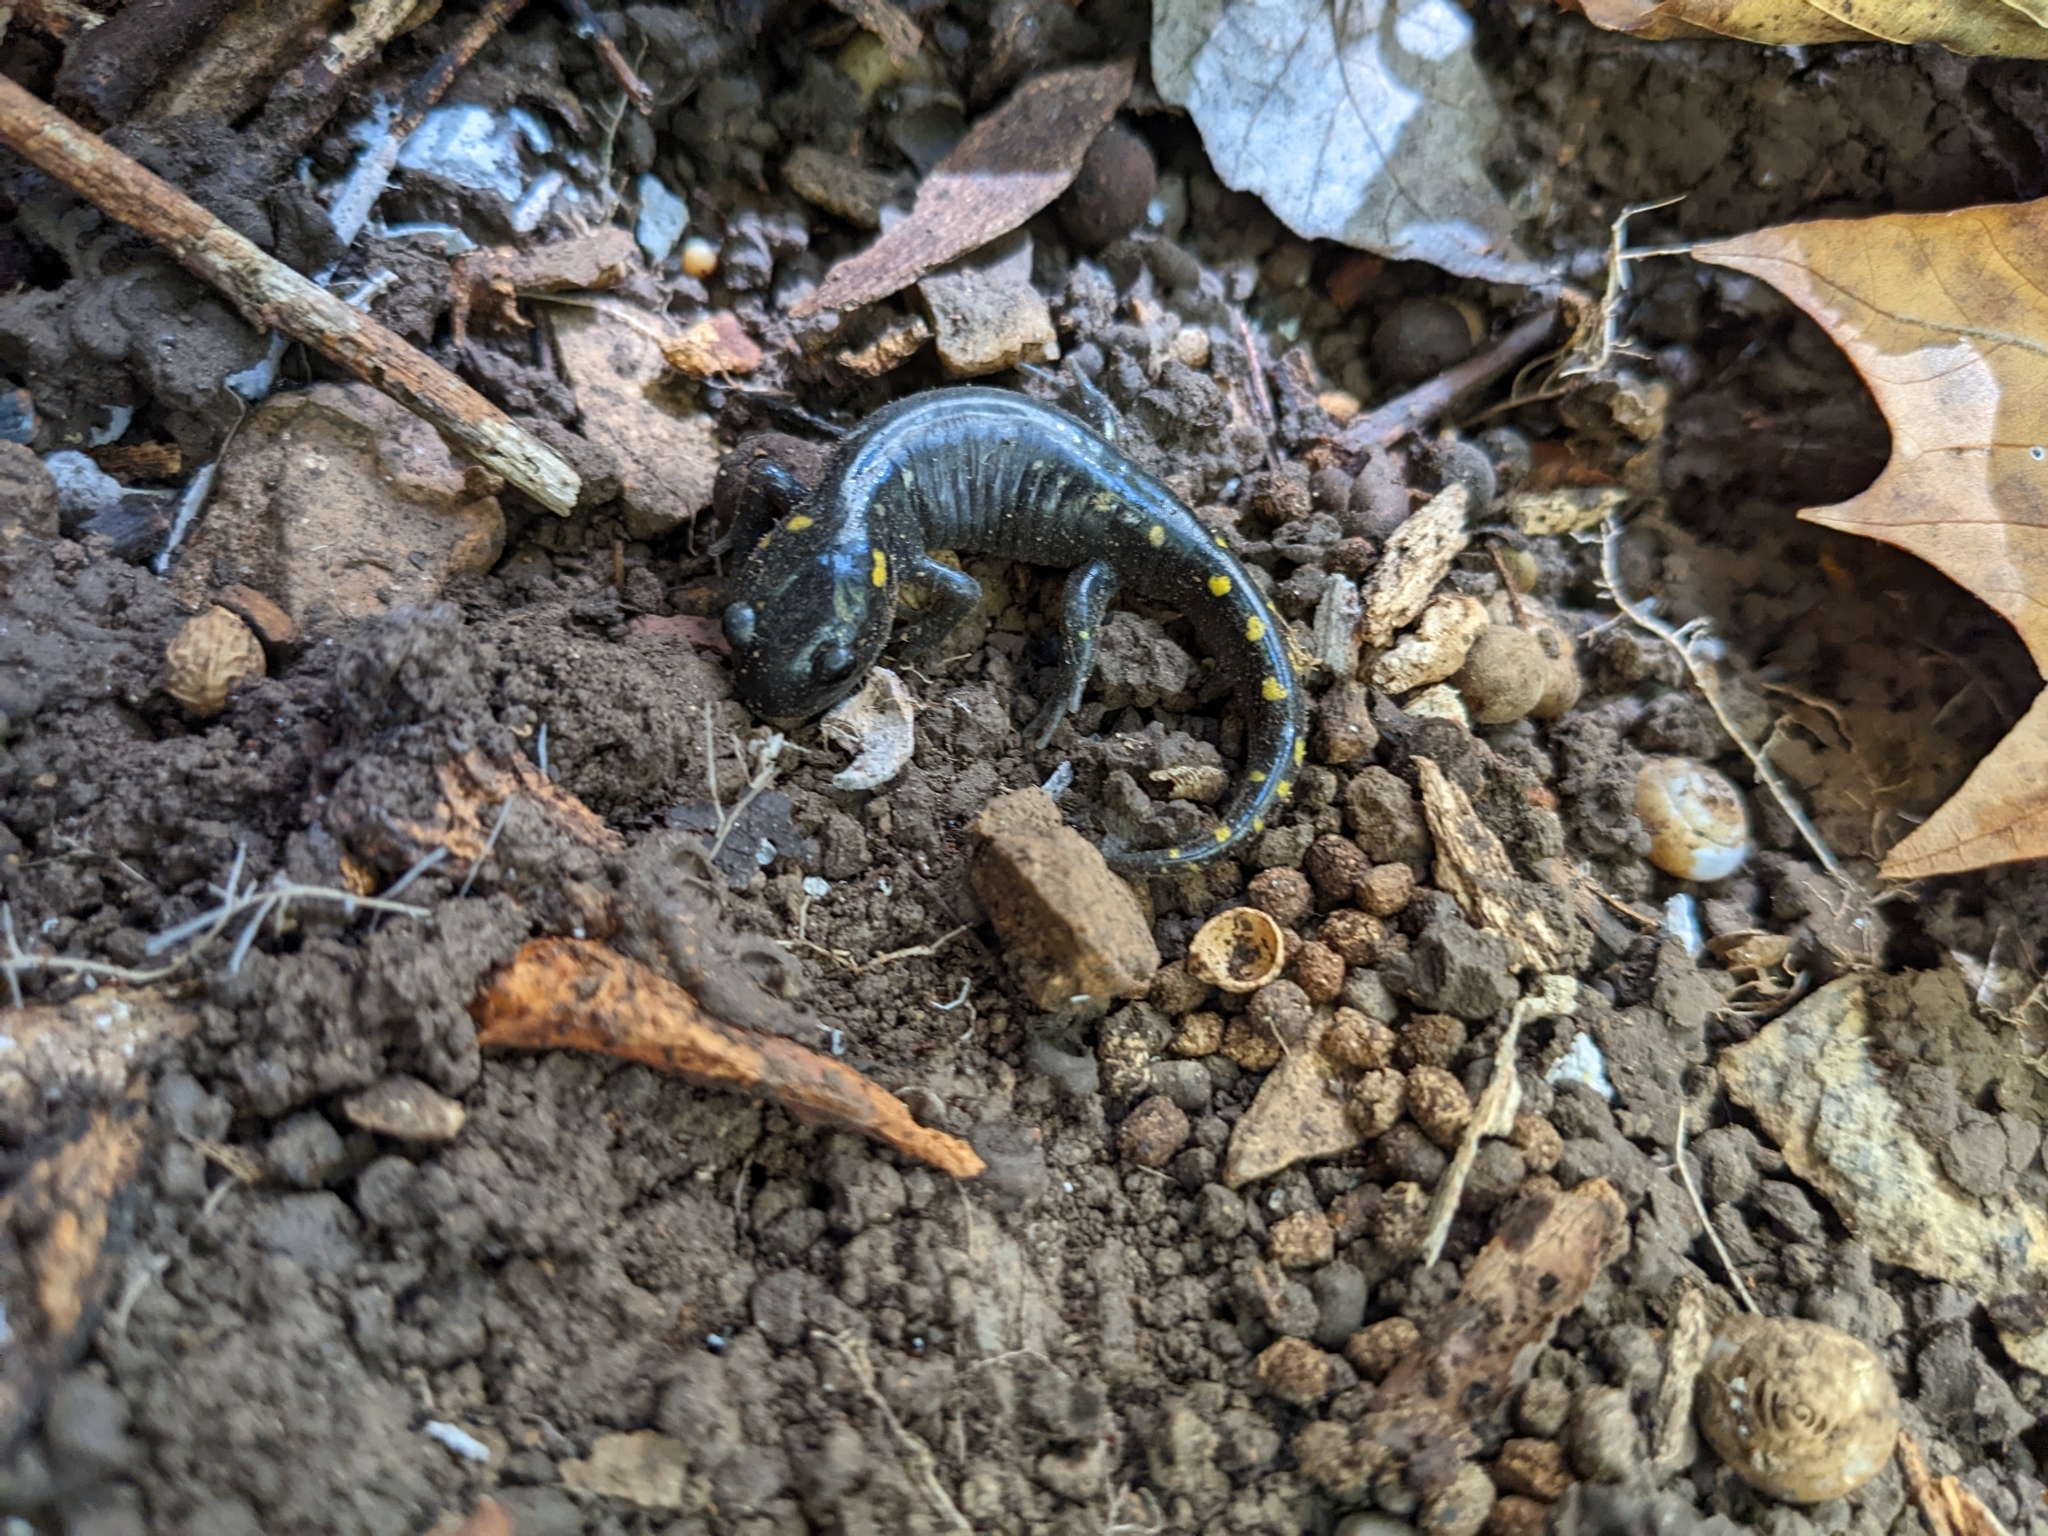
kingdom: Animalia
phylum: Chordata
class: Amphibia
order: Caudata
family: Ambystomatidae
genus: Ambystoma
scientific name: Ambystoma maculatum
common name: Spotted salamander
